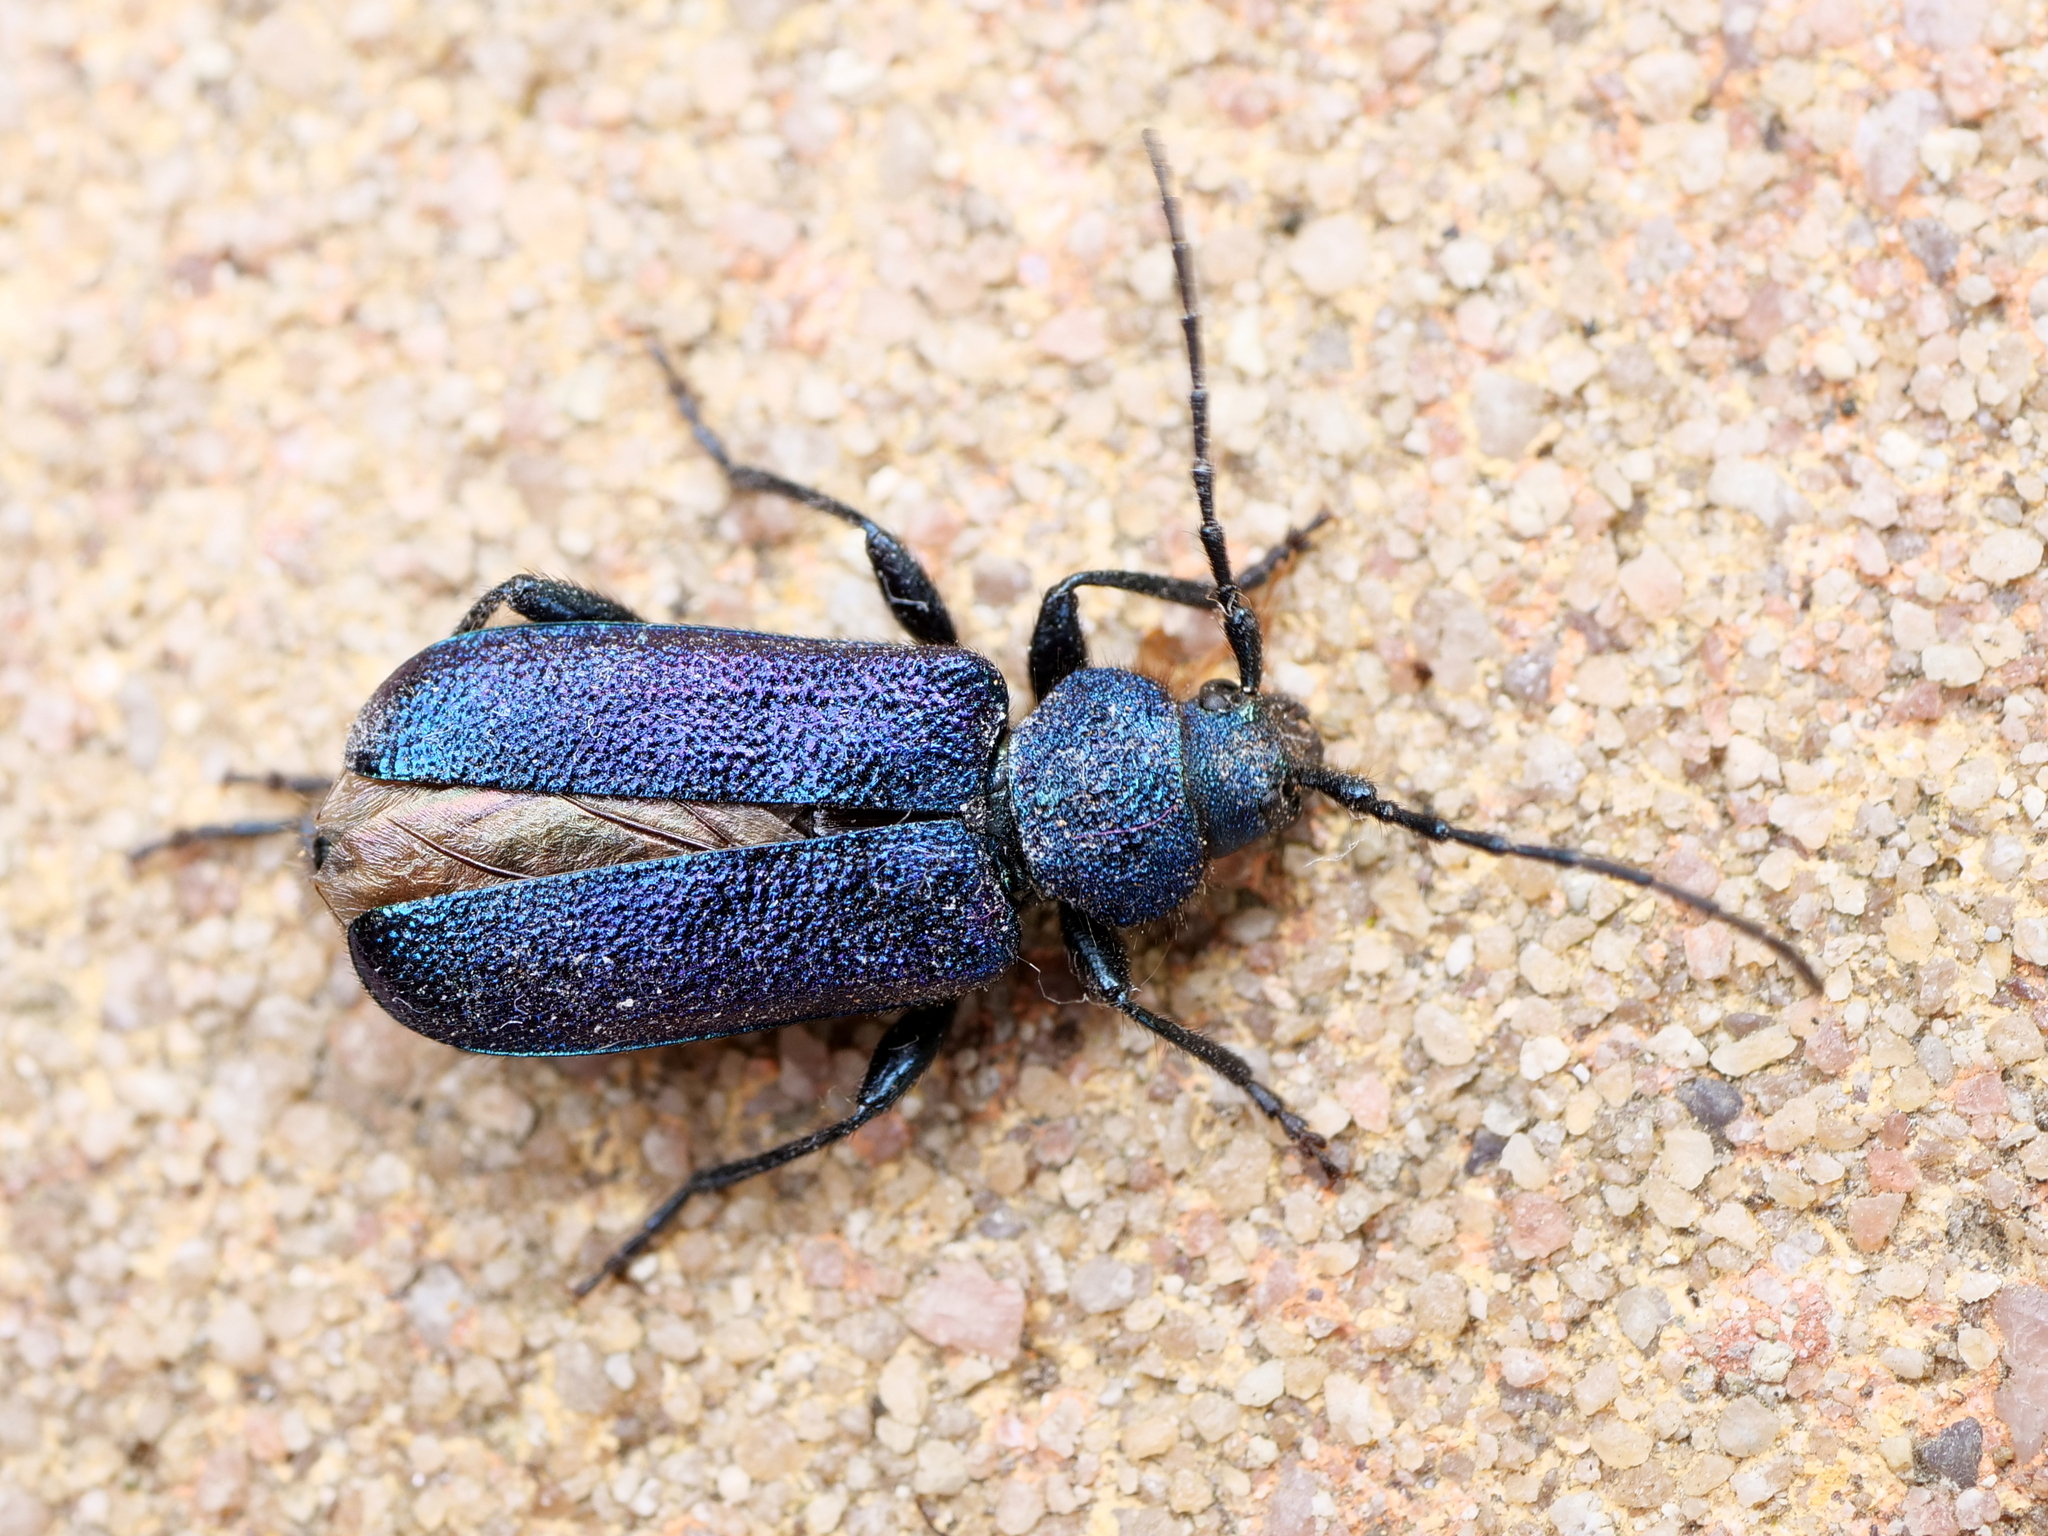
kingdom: Animalia
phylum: Arthropoda
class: Insecta
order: Coleoptera
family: Cerambycidae
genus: Callidium
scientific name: Callidium violaceum
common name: Violet tanbark beetle
